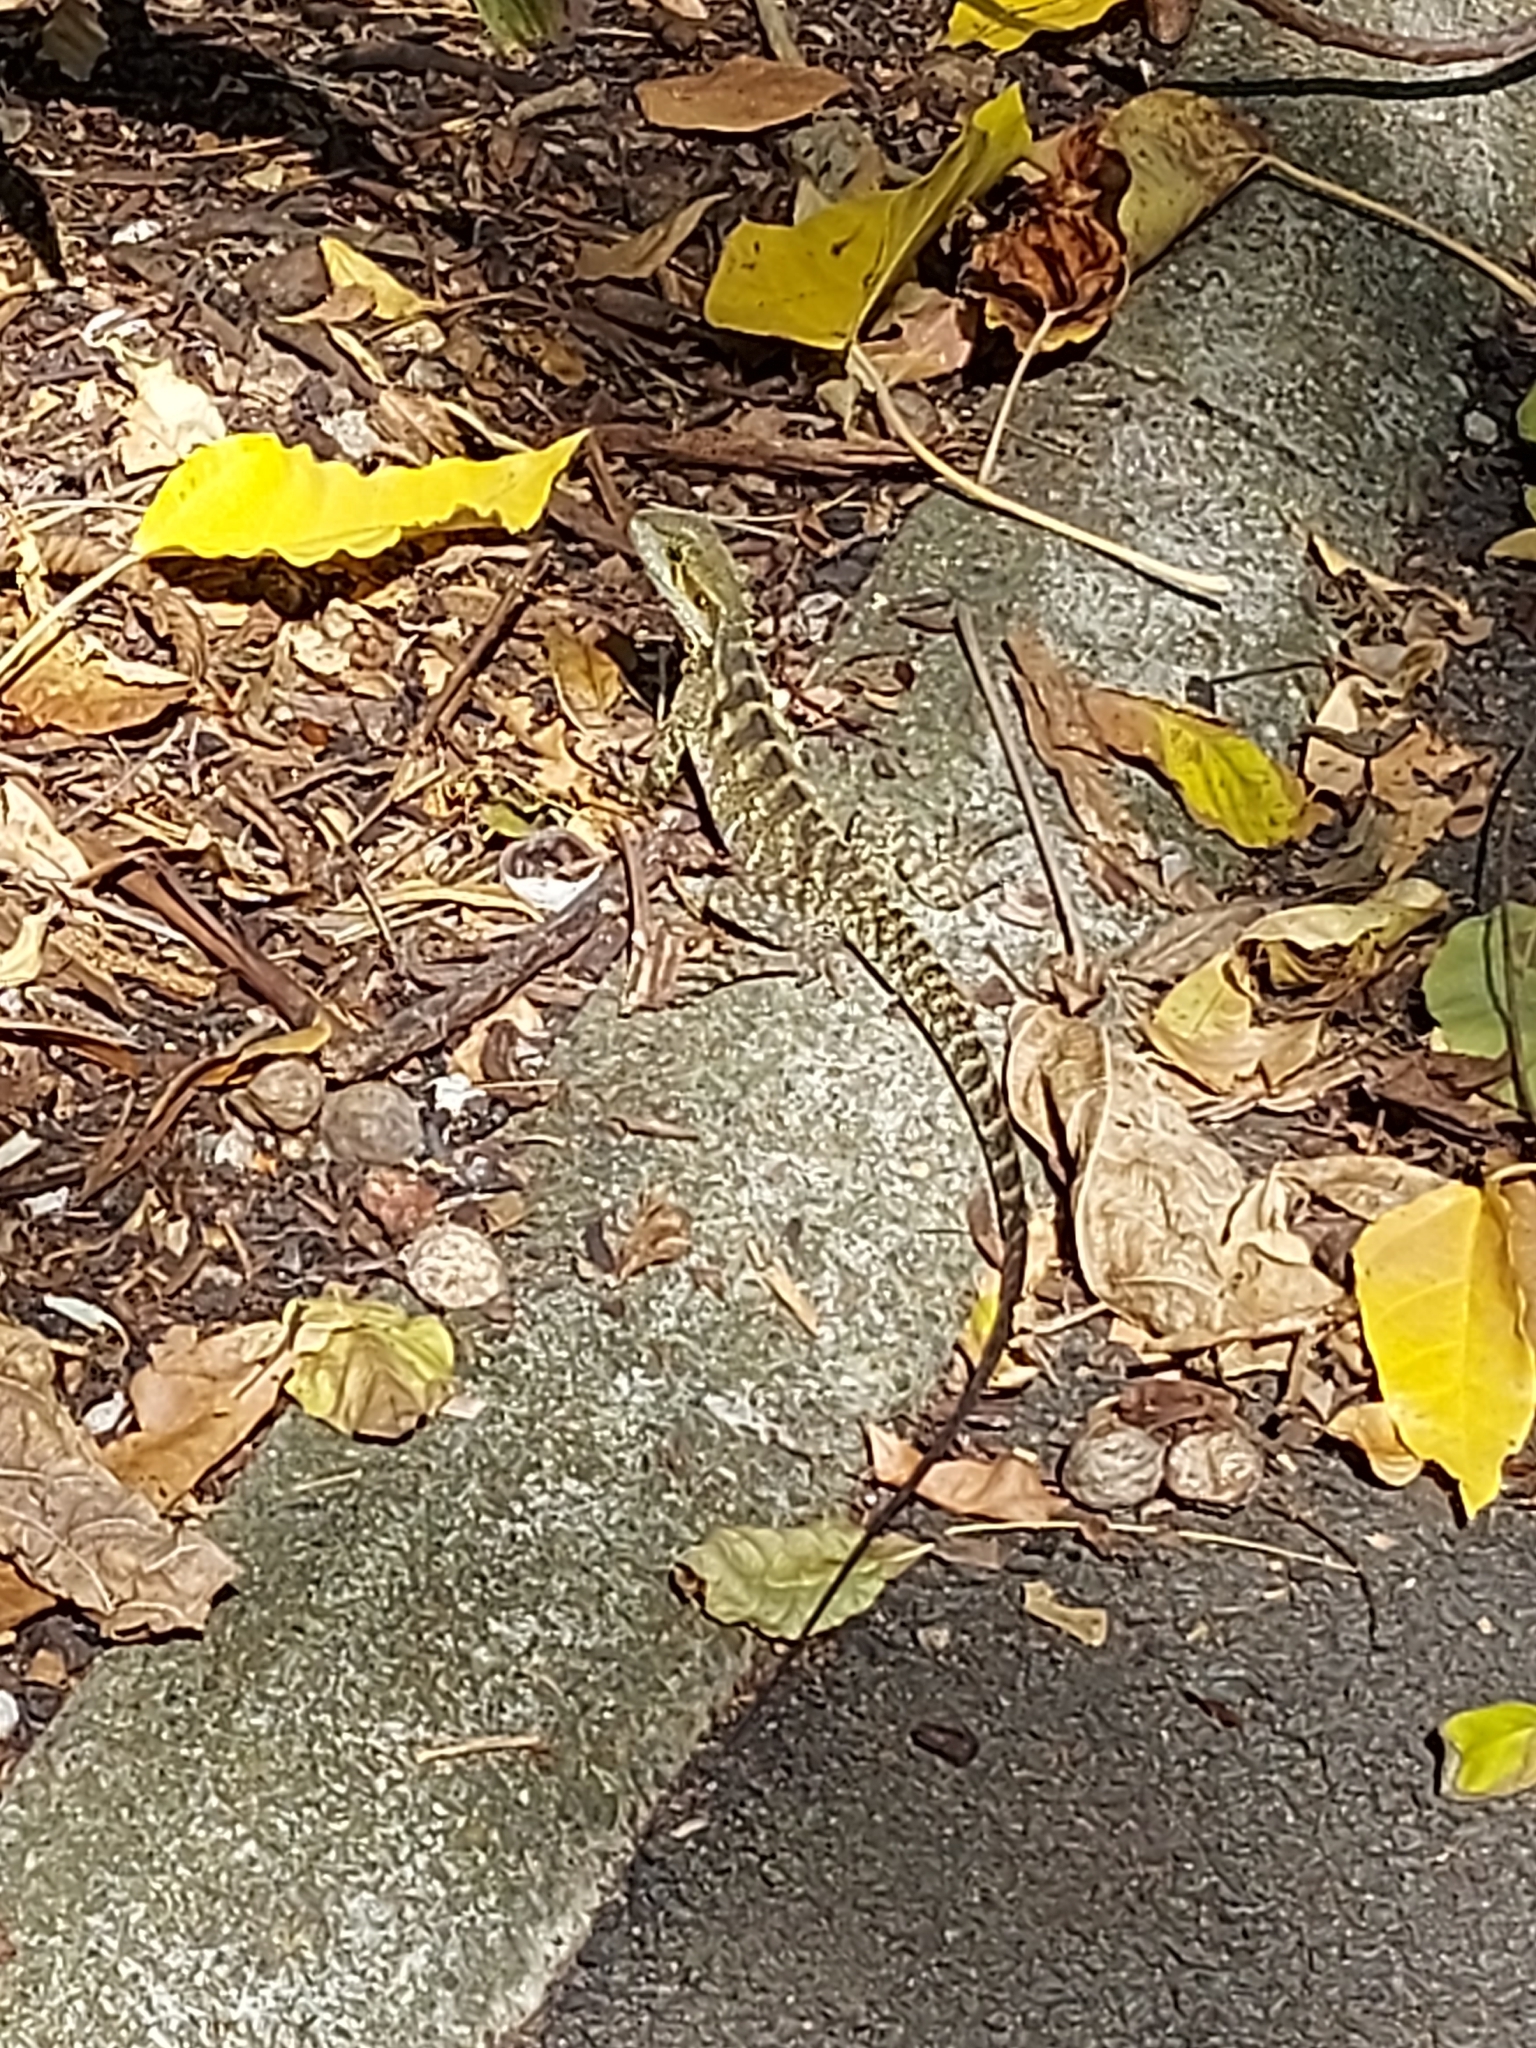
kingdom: Animalia
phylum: Chordata
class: Squamata
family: Agamidae
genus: Intellagama
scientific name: Intellagama lesueurii
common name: Eastern water dragon
